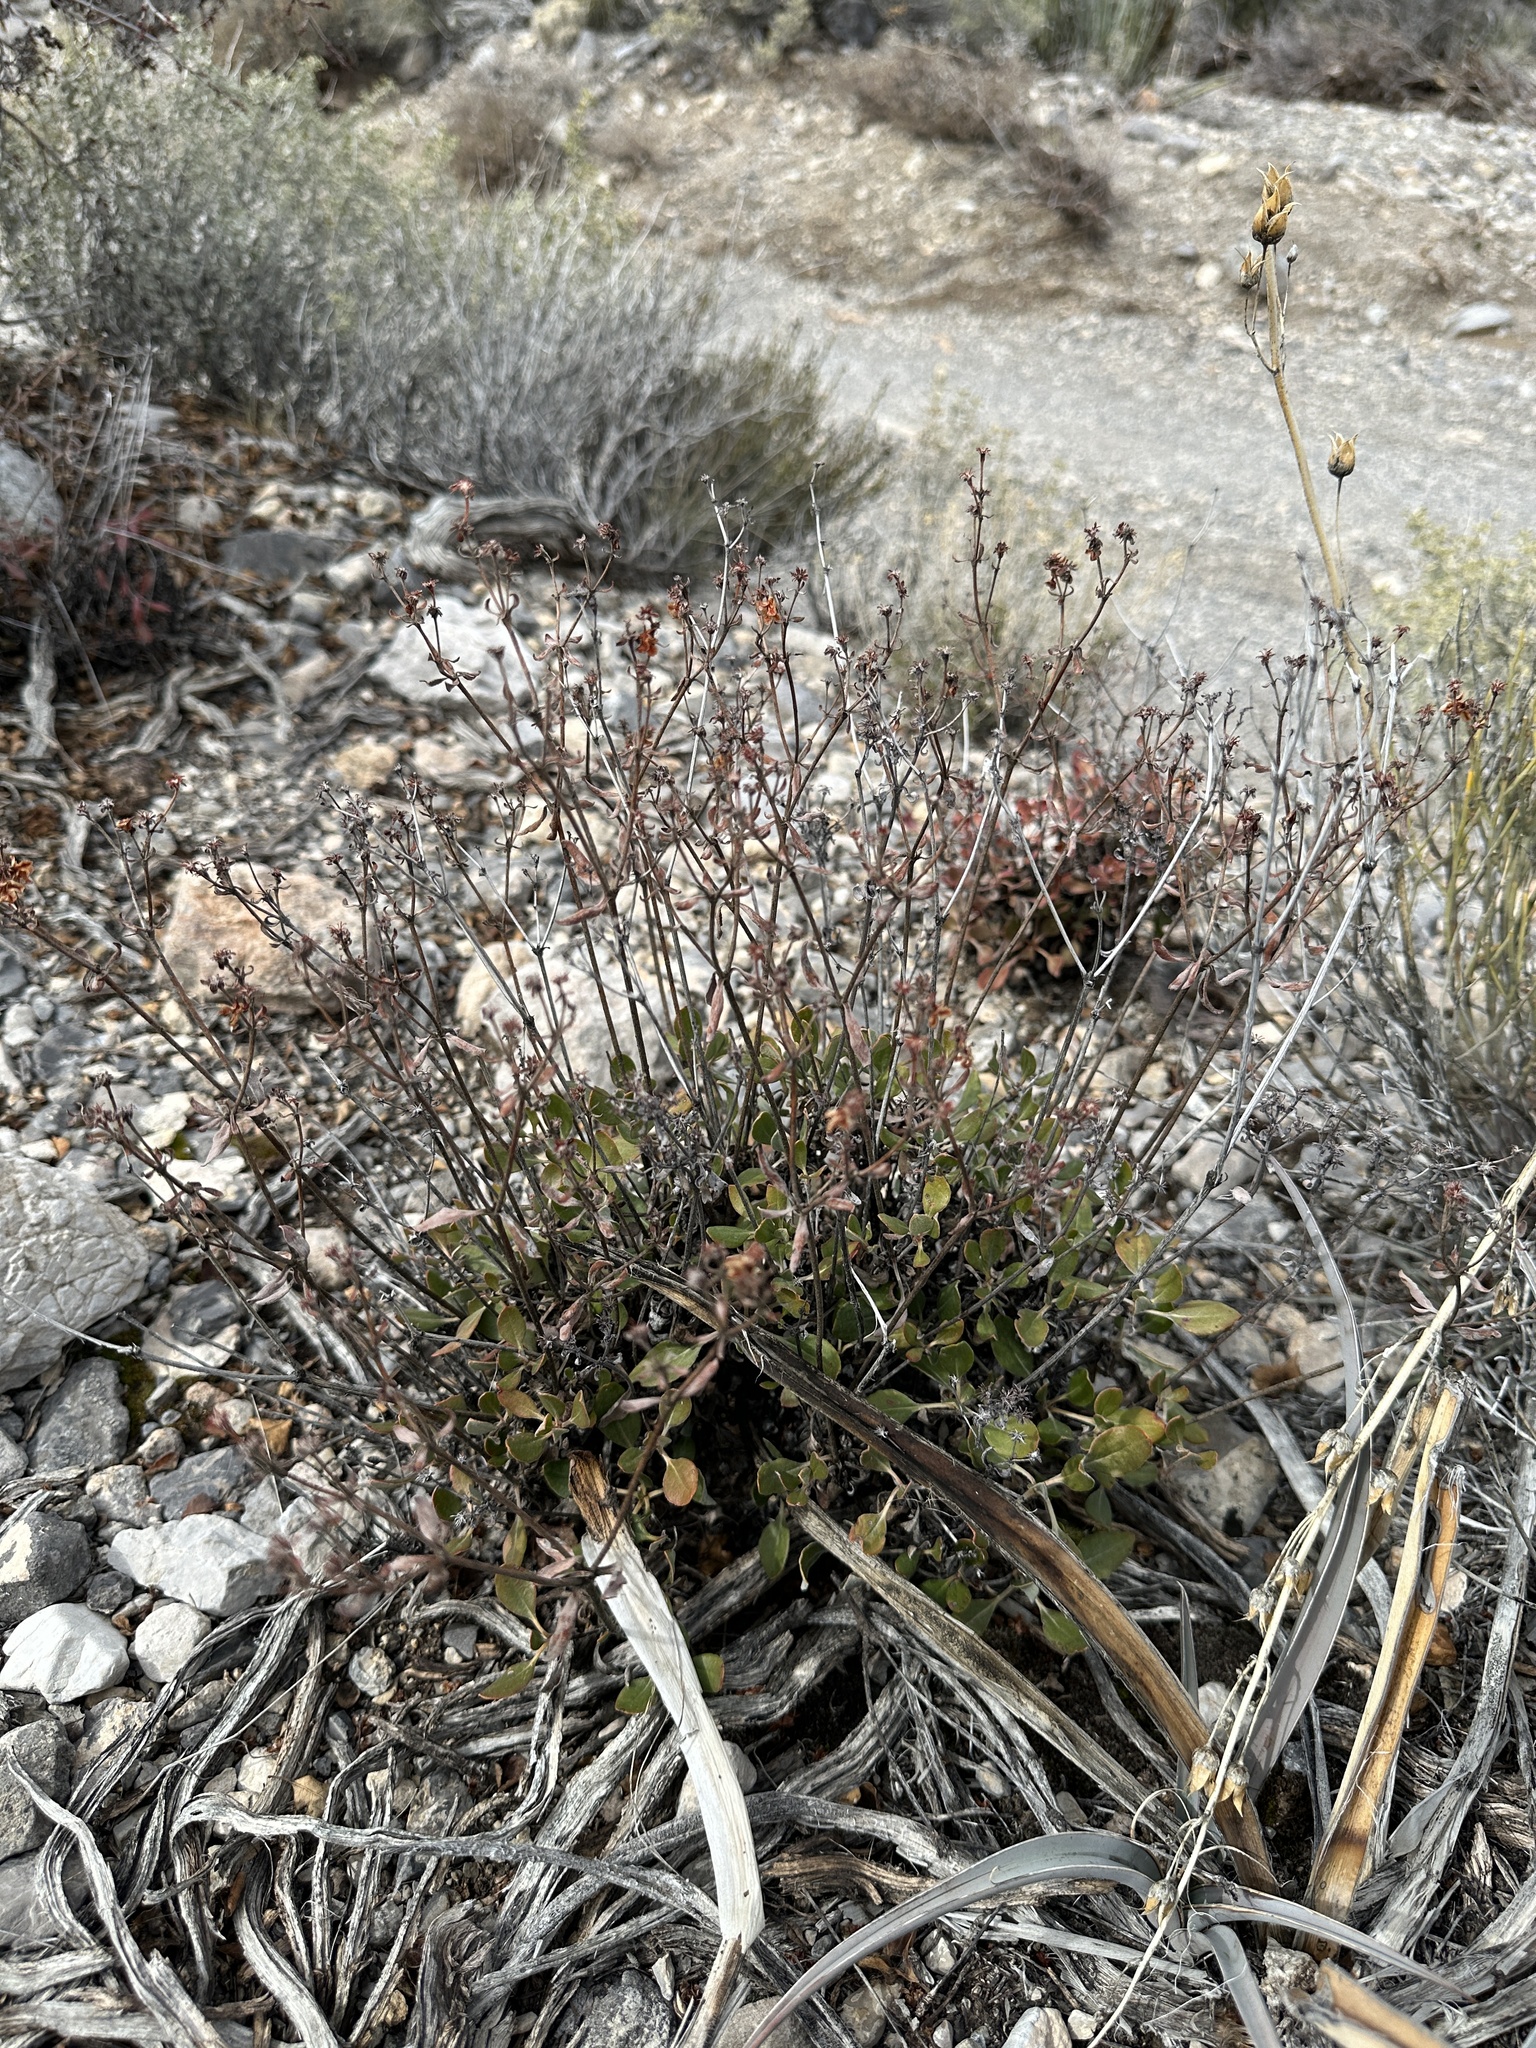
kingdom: Plantae
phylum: Tracheophyta
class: Magnoliopsida
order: Caryophyllales
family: Polygonaceae
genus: Eriogonum
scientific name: Eriogonum umbellatum
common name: Sulfur-buckwheat
